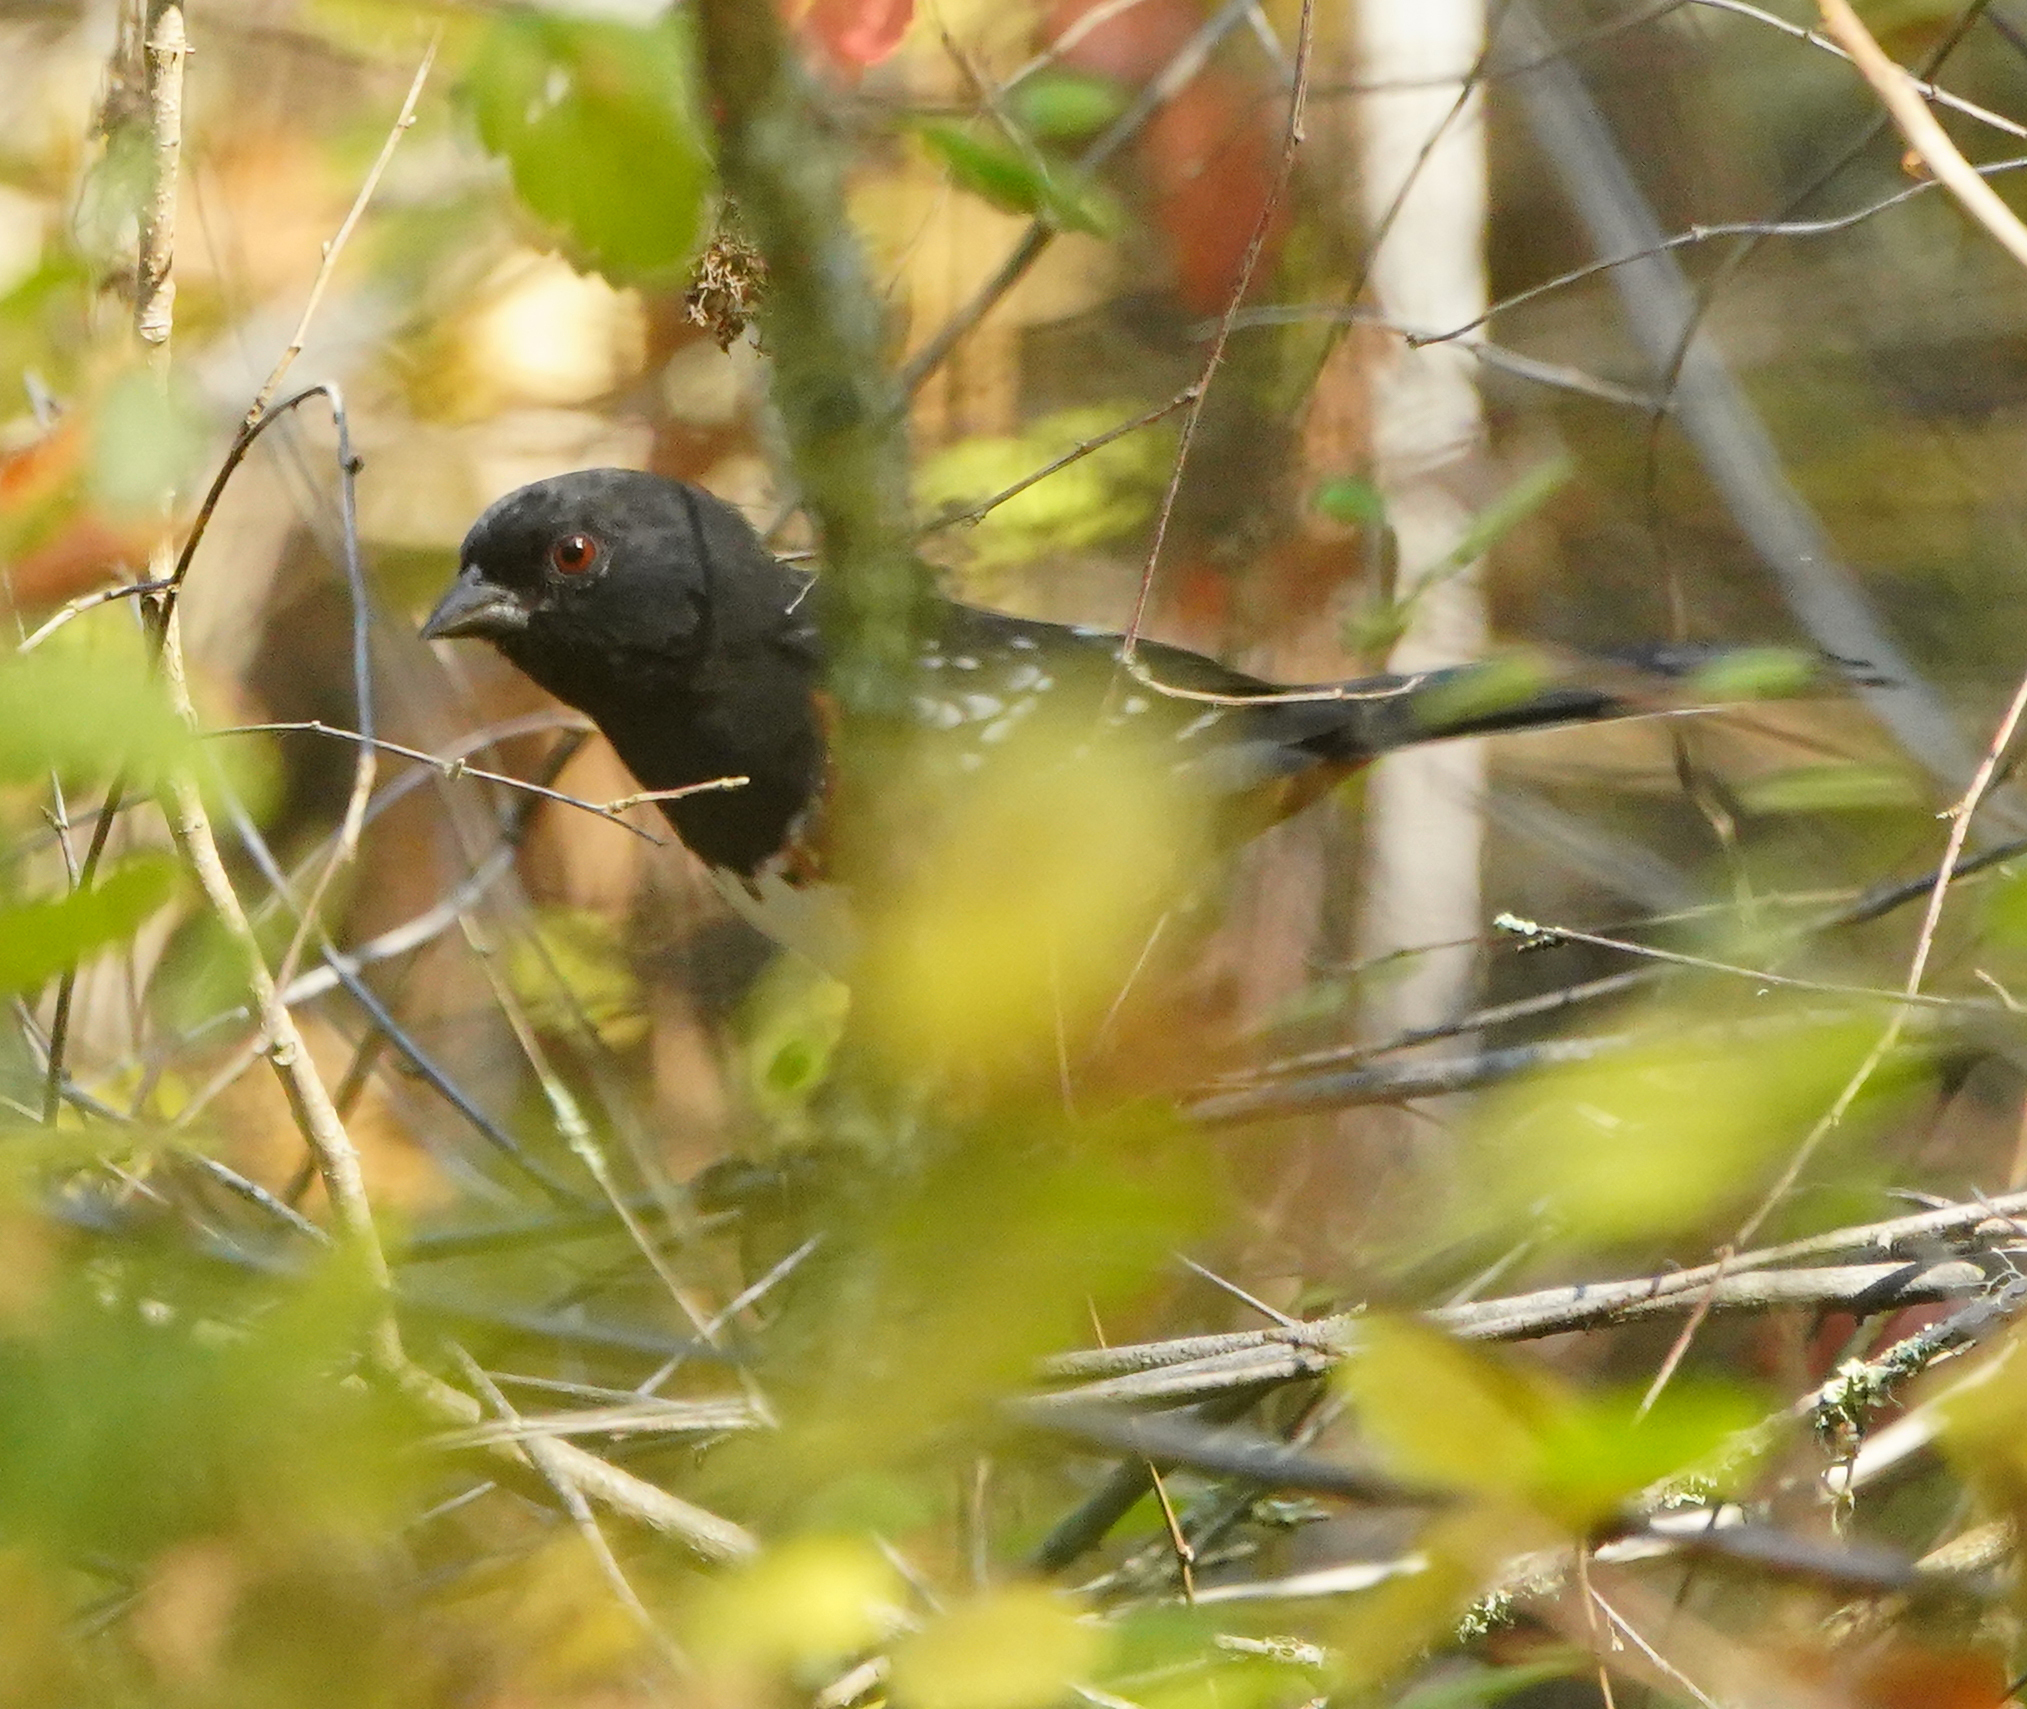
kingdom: Animalia
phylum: Chordata
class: Aves
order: Passeriformes
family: Passerellidae
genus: Pipilo
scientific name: Pipilo maculatus
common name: Spotted towhee
